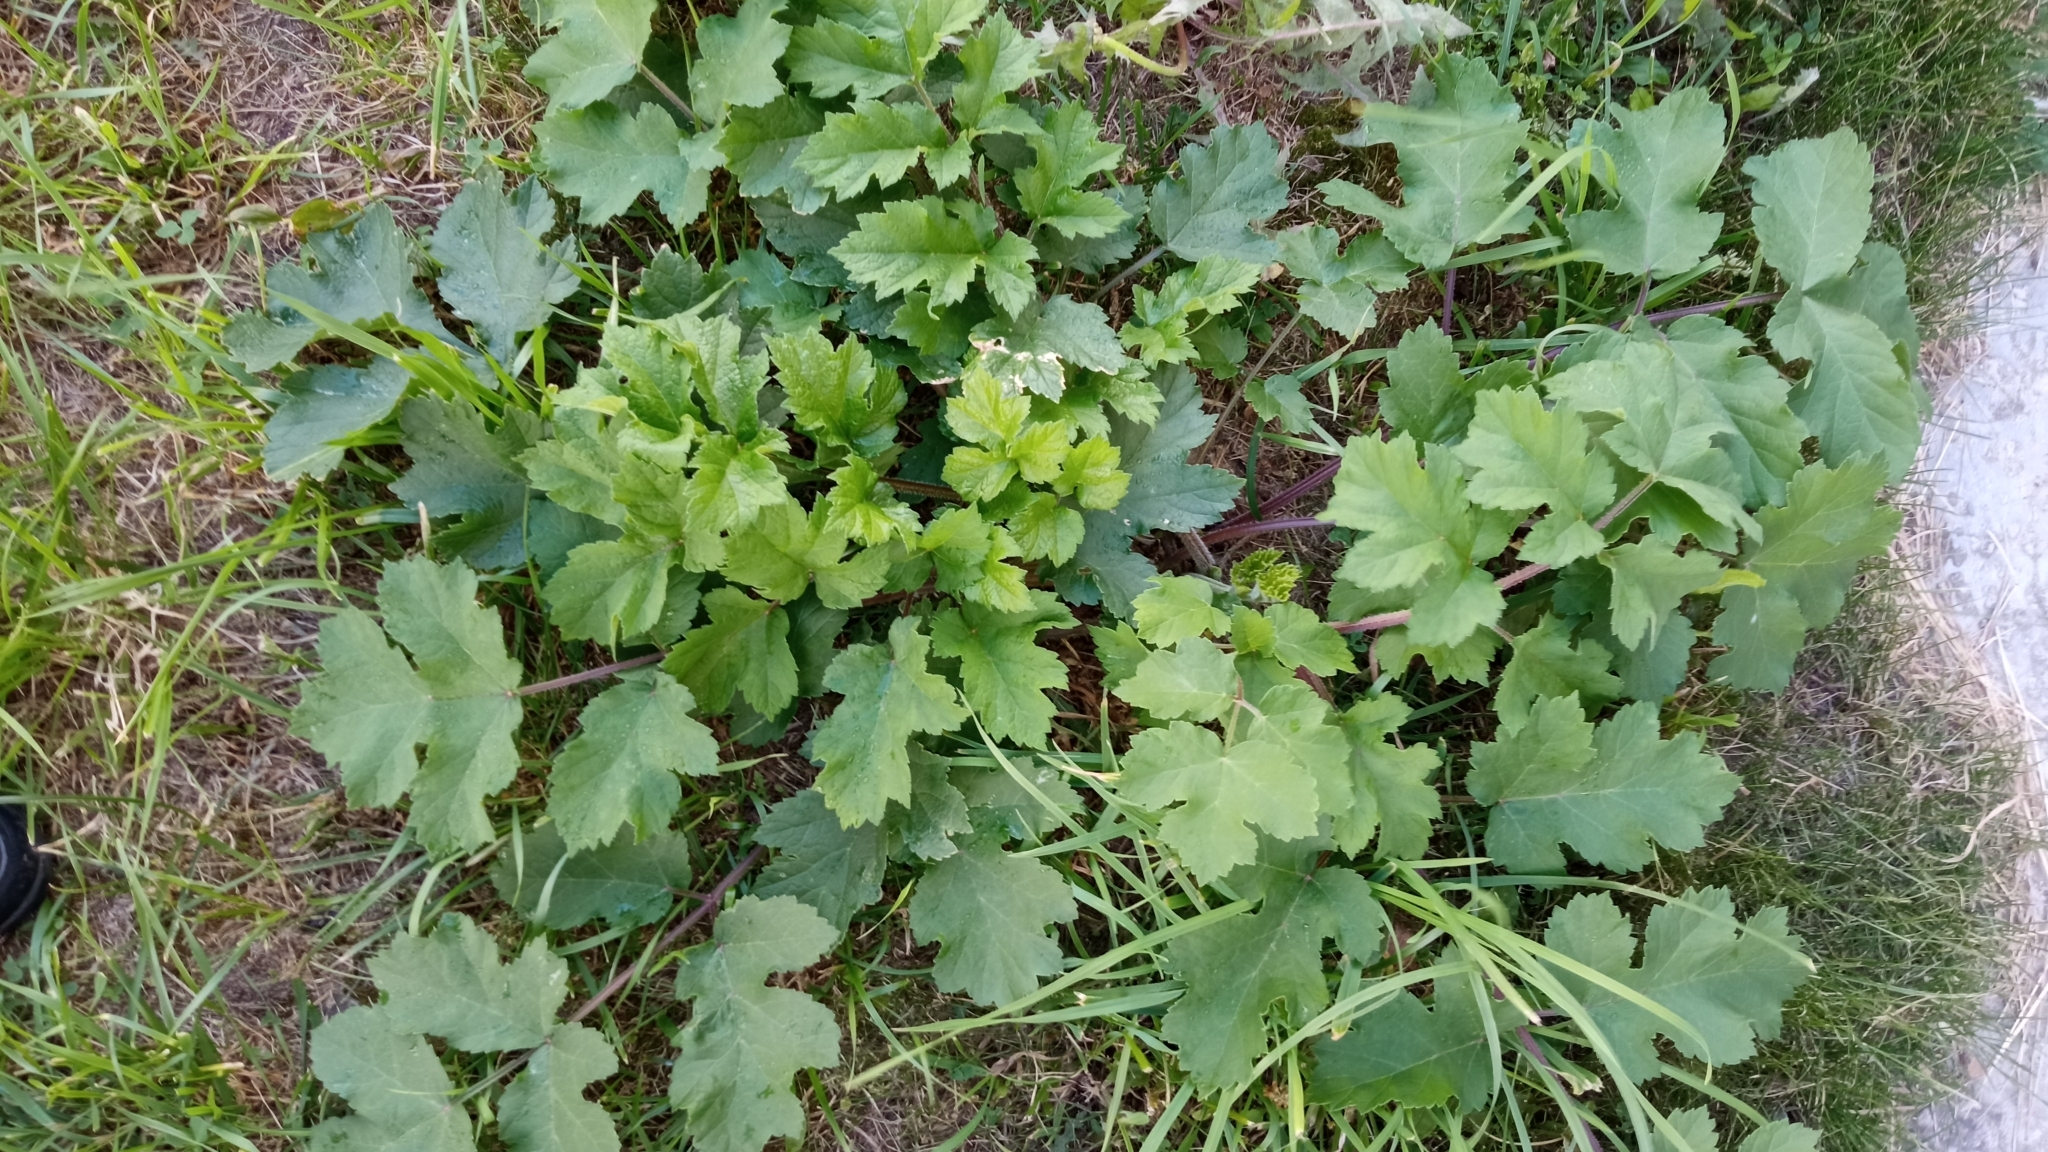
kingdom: Plantae
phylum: Tracheophyta
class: Magnoliopsida
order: Apiales
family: Apiaceae
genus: Heracleum
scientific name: Heracleum sphondylium
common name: Hogweed
